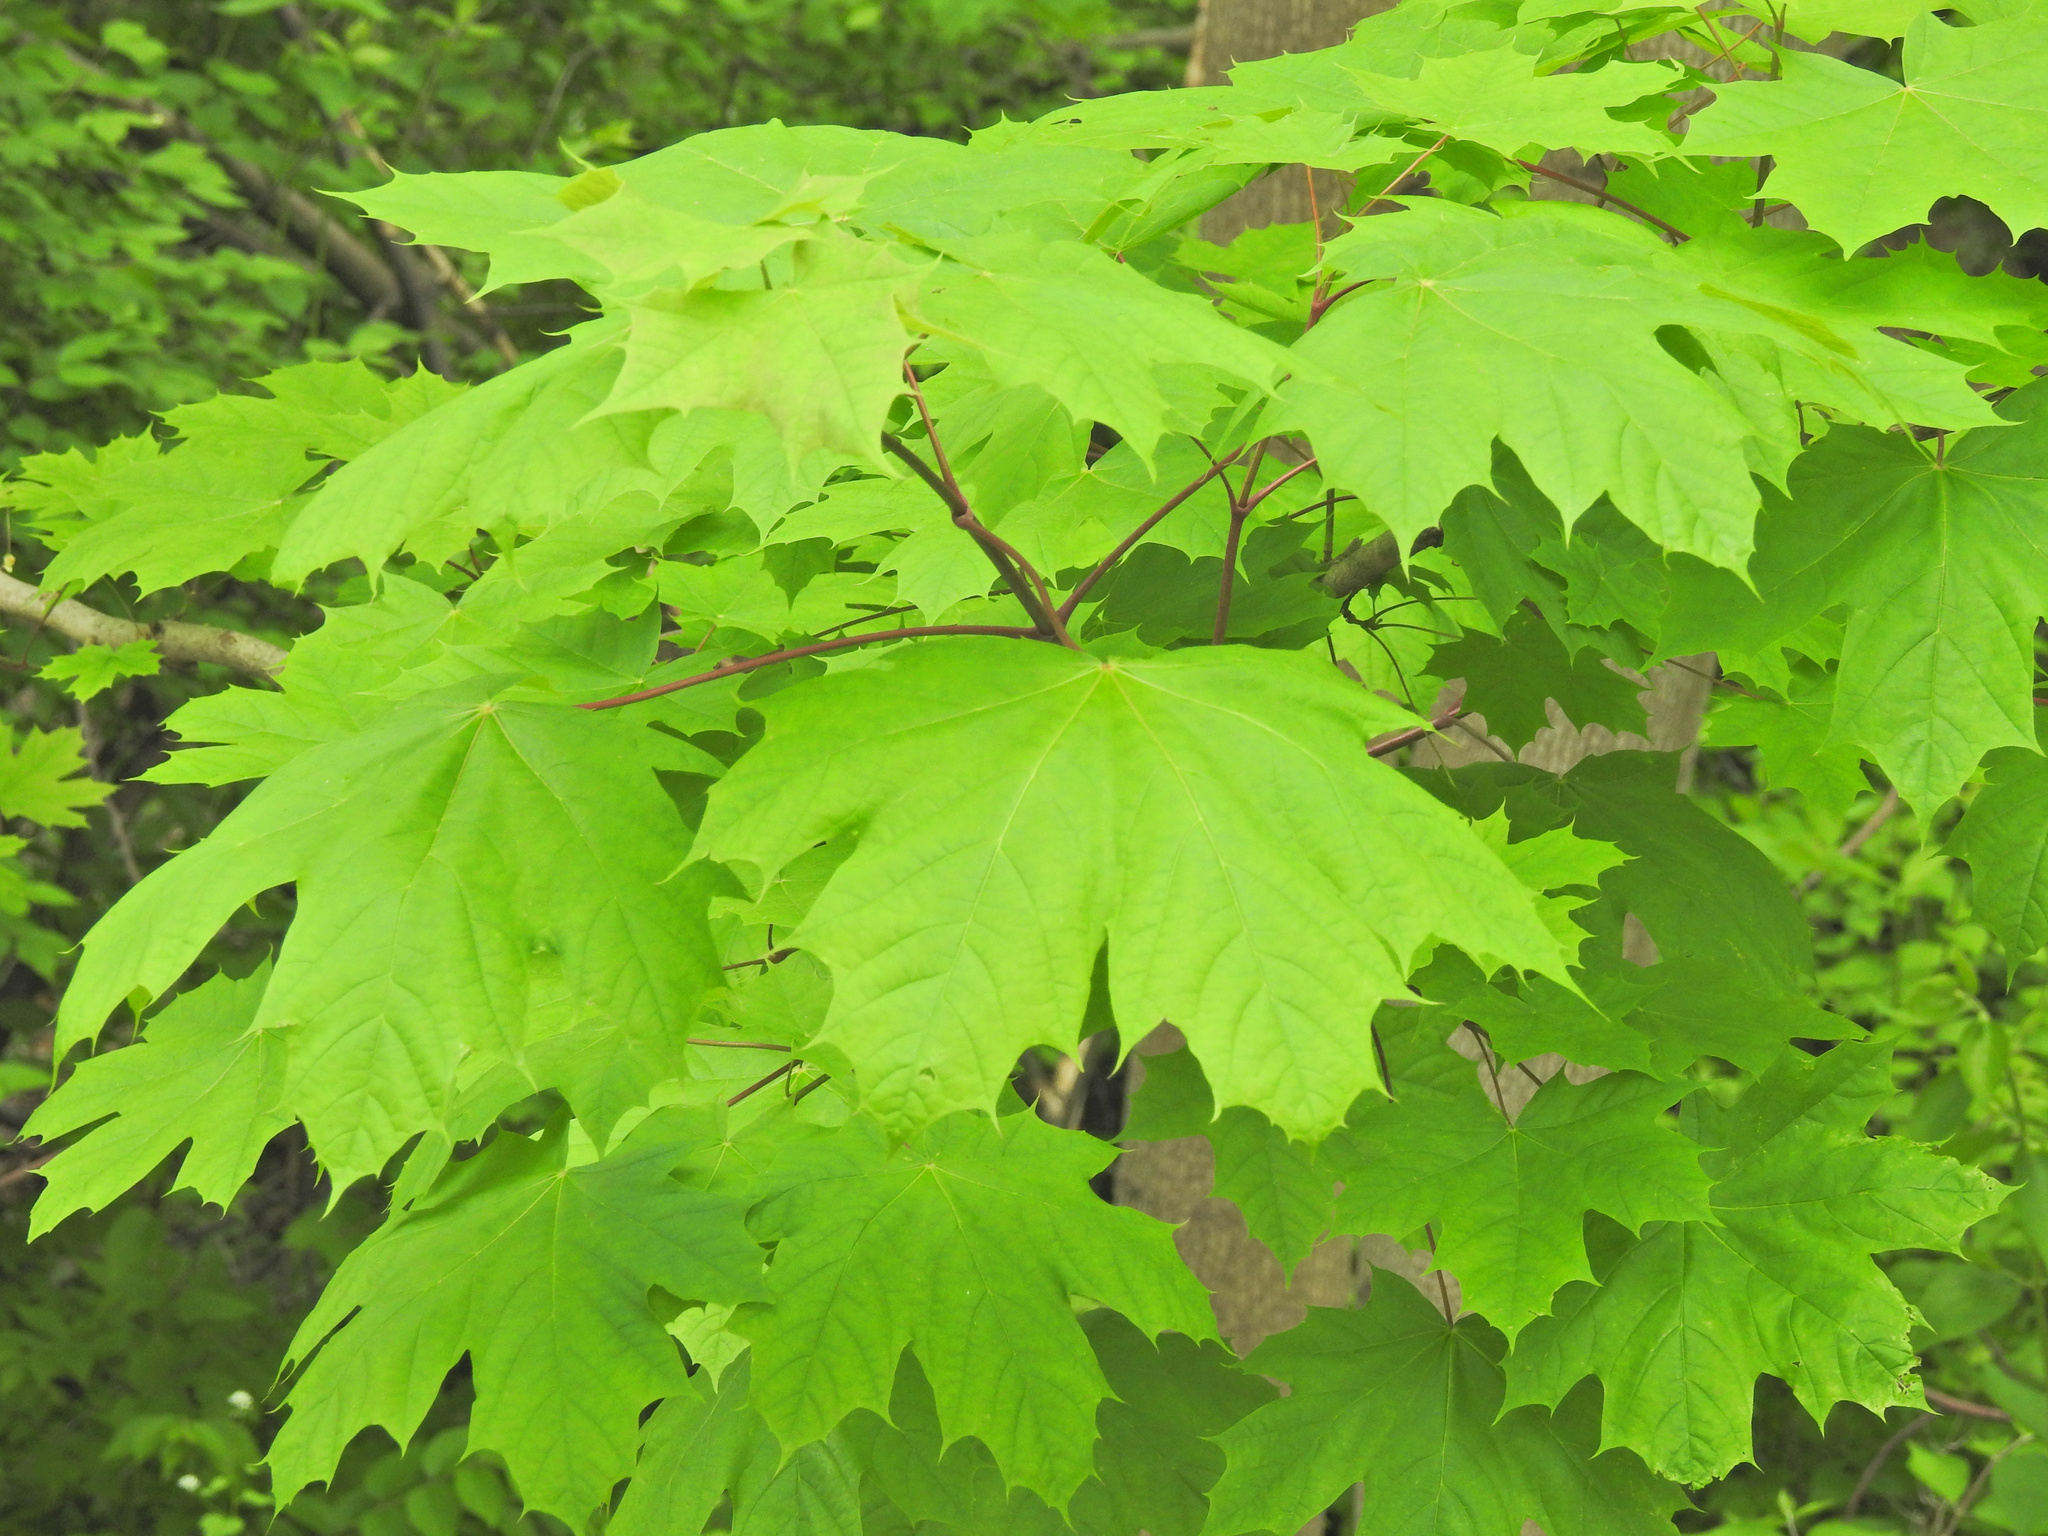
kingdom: Plantae
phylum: Tracheophyta
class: Magnoliopsida
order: Sapindales
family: Sapindaceae
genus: Acer
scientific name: Acer platanoides
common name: Norway maple
